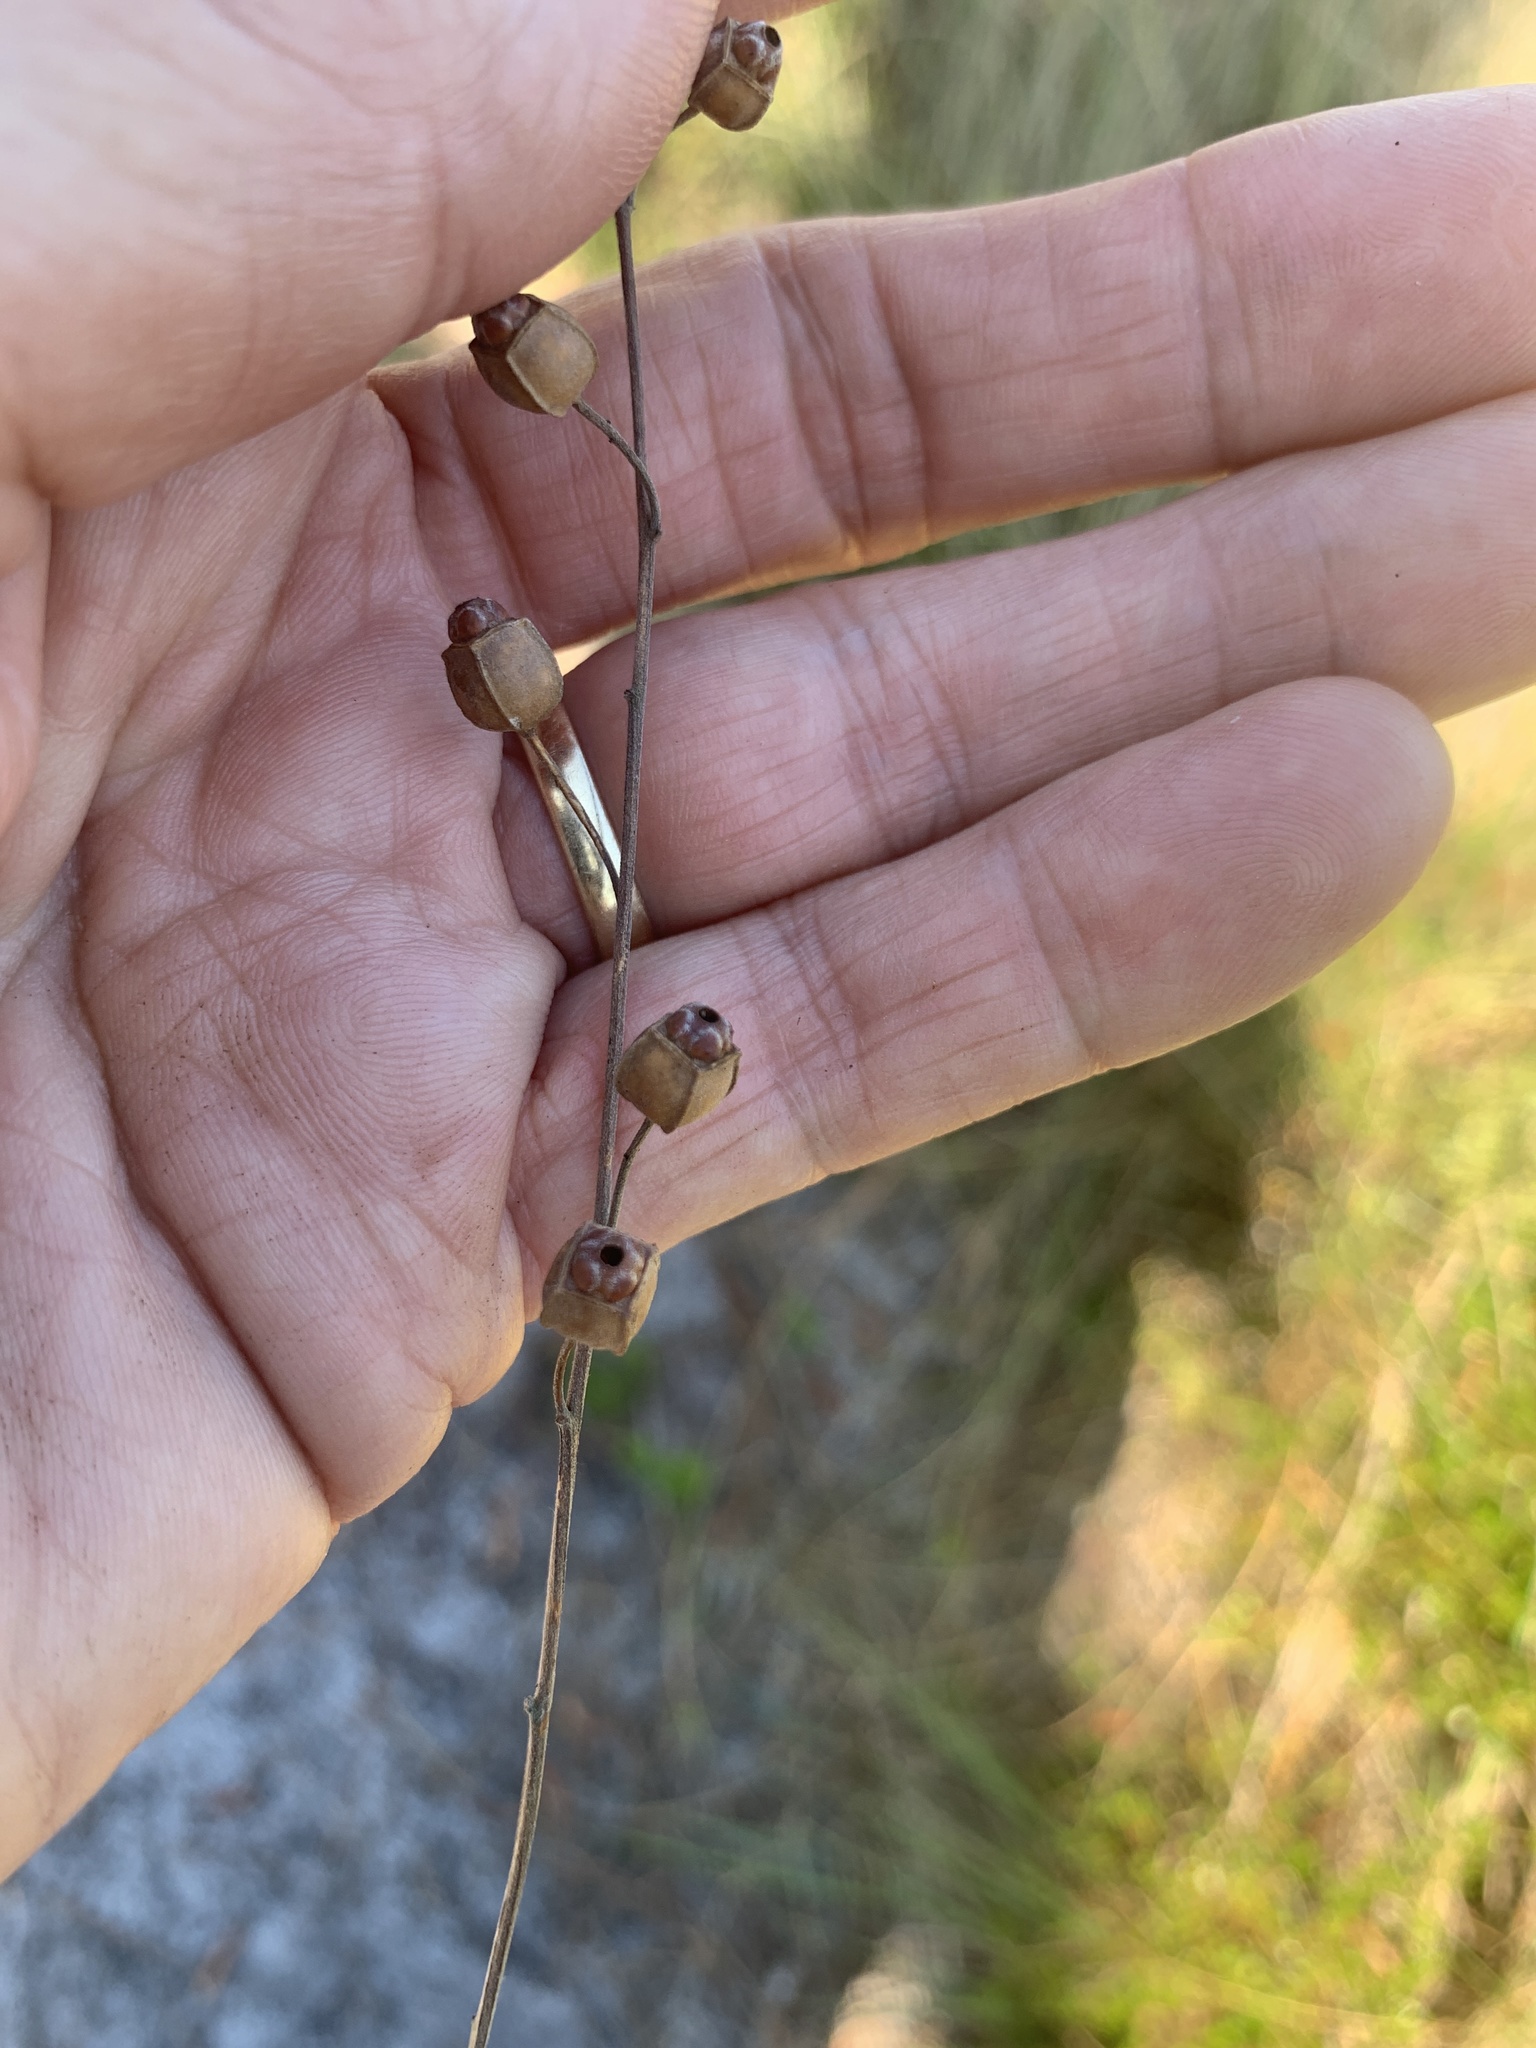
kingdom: Plantae
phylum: Tracheophyta
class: Magnoliopsida
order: Myrtales
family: Onagraceae
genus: Ludwigia
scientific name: Ludwigia maritima
